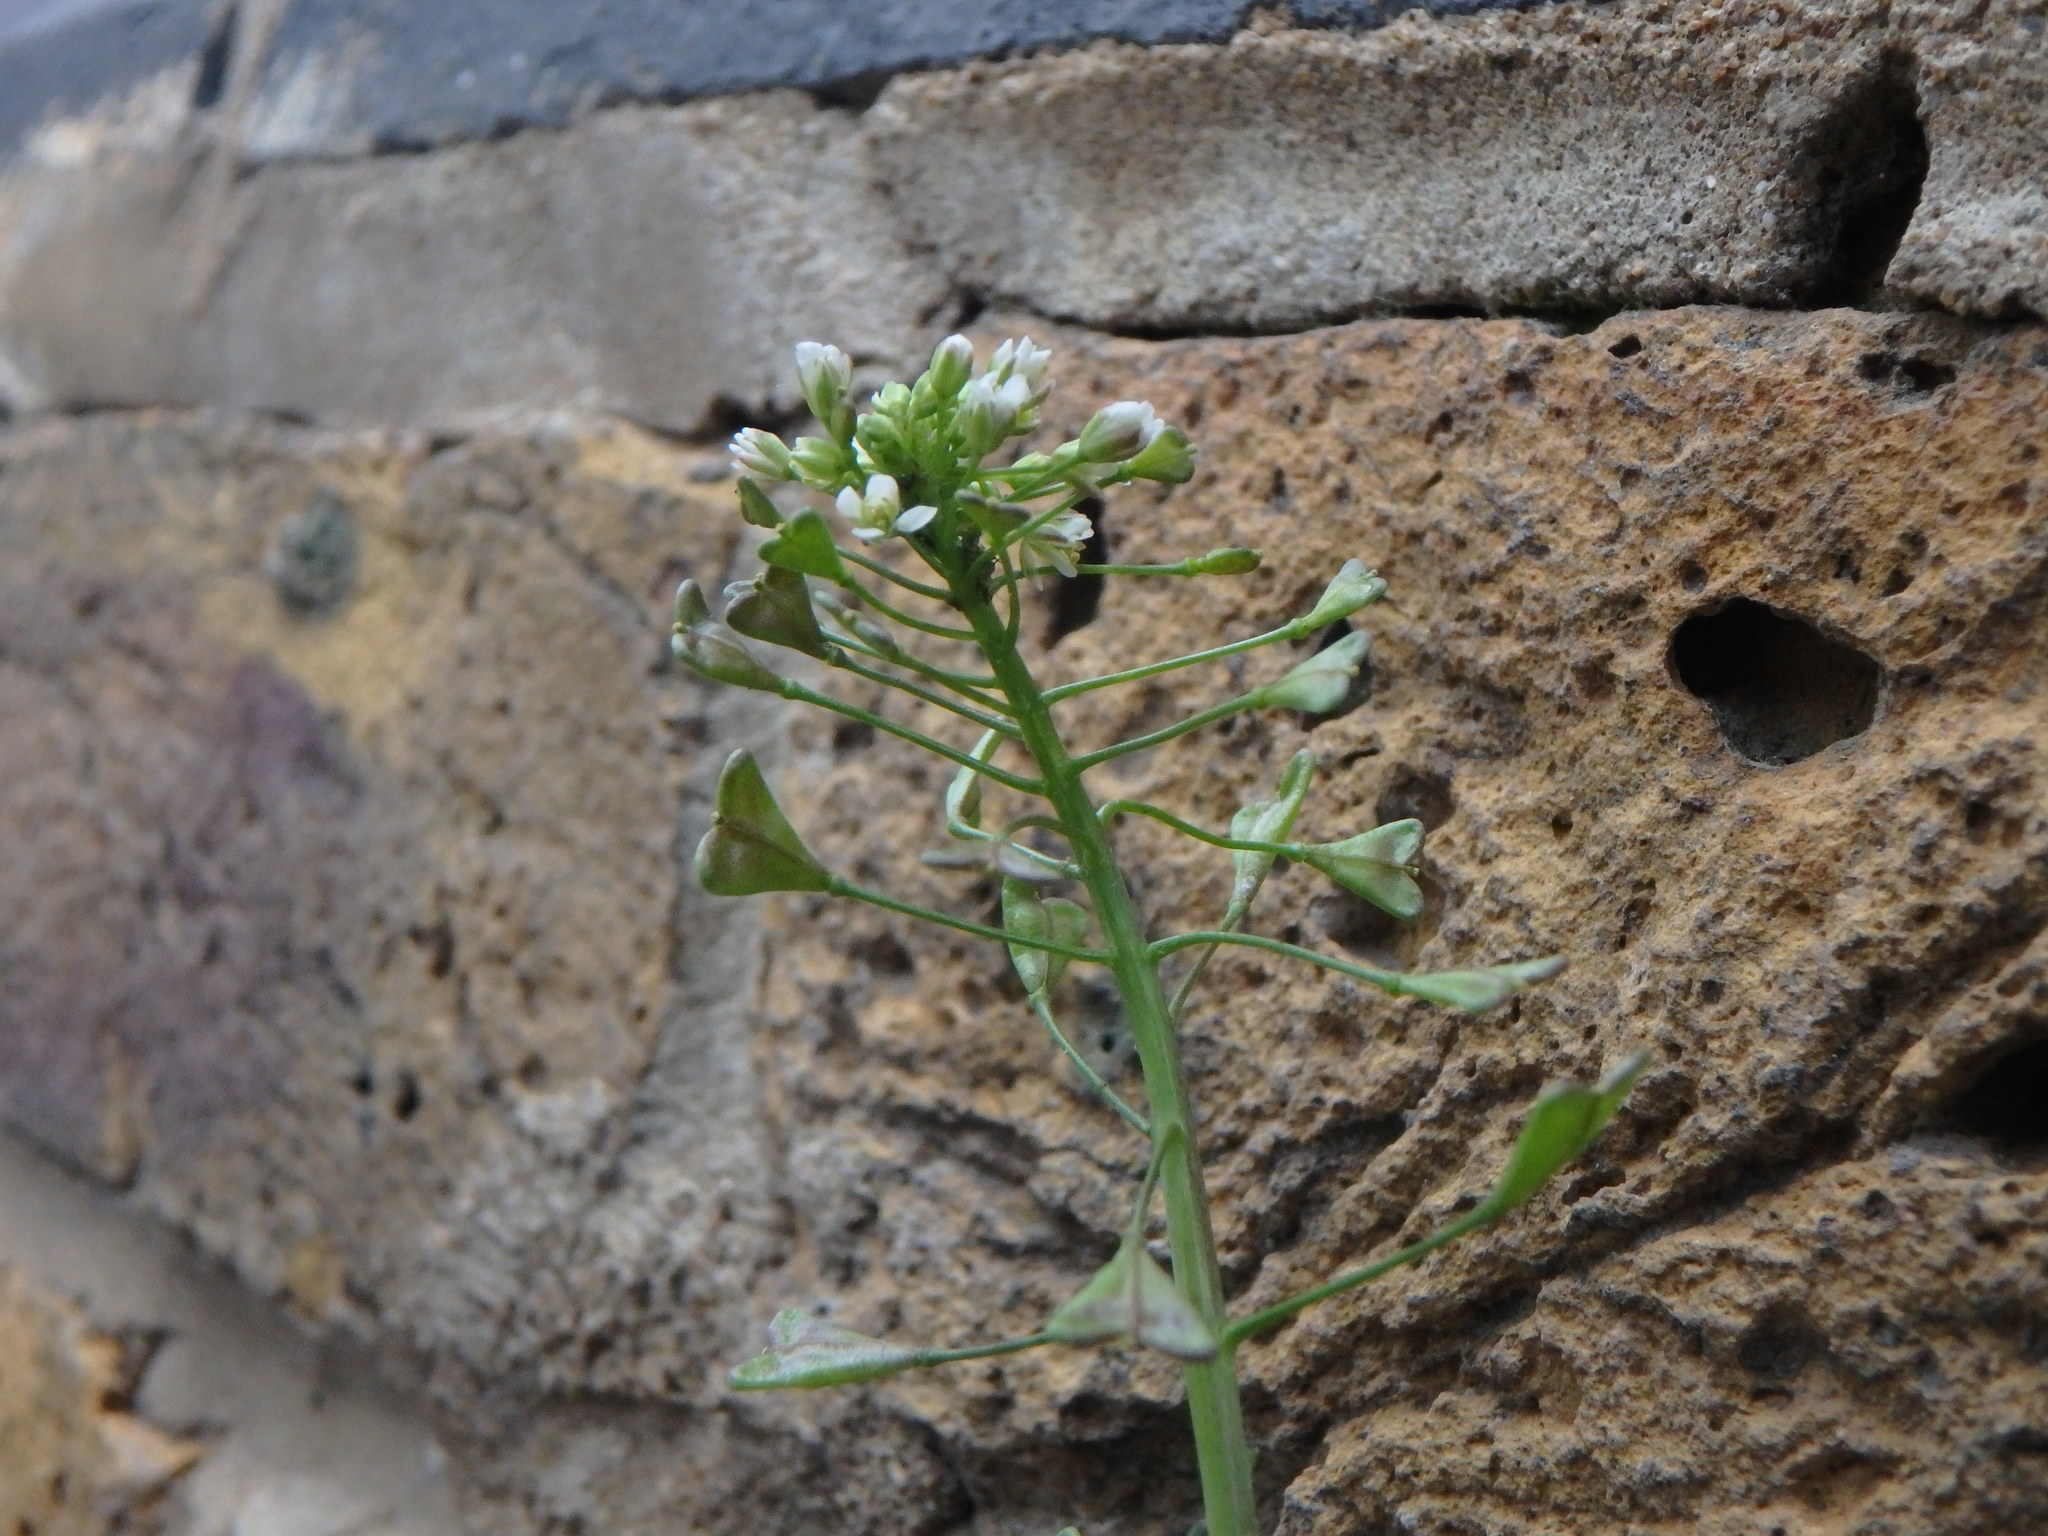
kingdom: Plantae
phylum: Tracheophyta
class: Magnoliopsida
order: Brassicales
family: Brassicaceae
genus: Capsella
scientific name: Capsella bursa-pastoris
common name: Shepherd's purse
